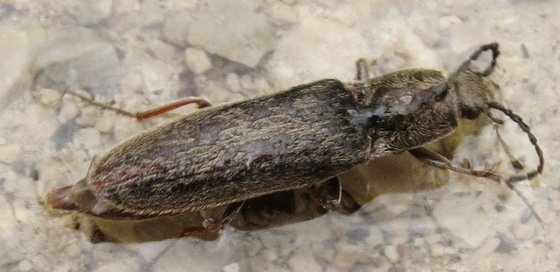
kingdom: Animalia
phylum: Arthropoda
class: Insecta
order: Coleoptera
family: Elateridae
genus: Sylvanelater
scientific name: Sylvanelater cylindriformis
